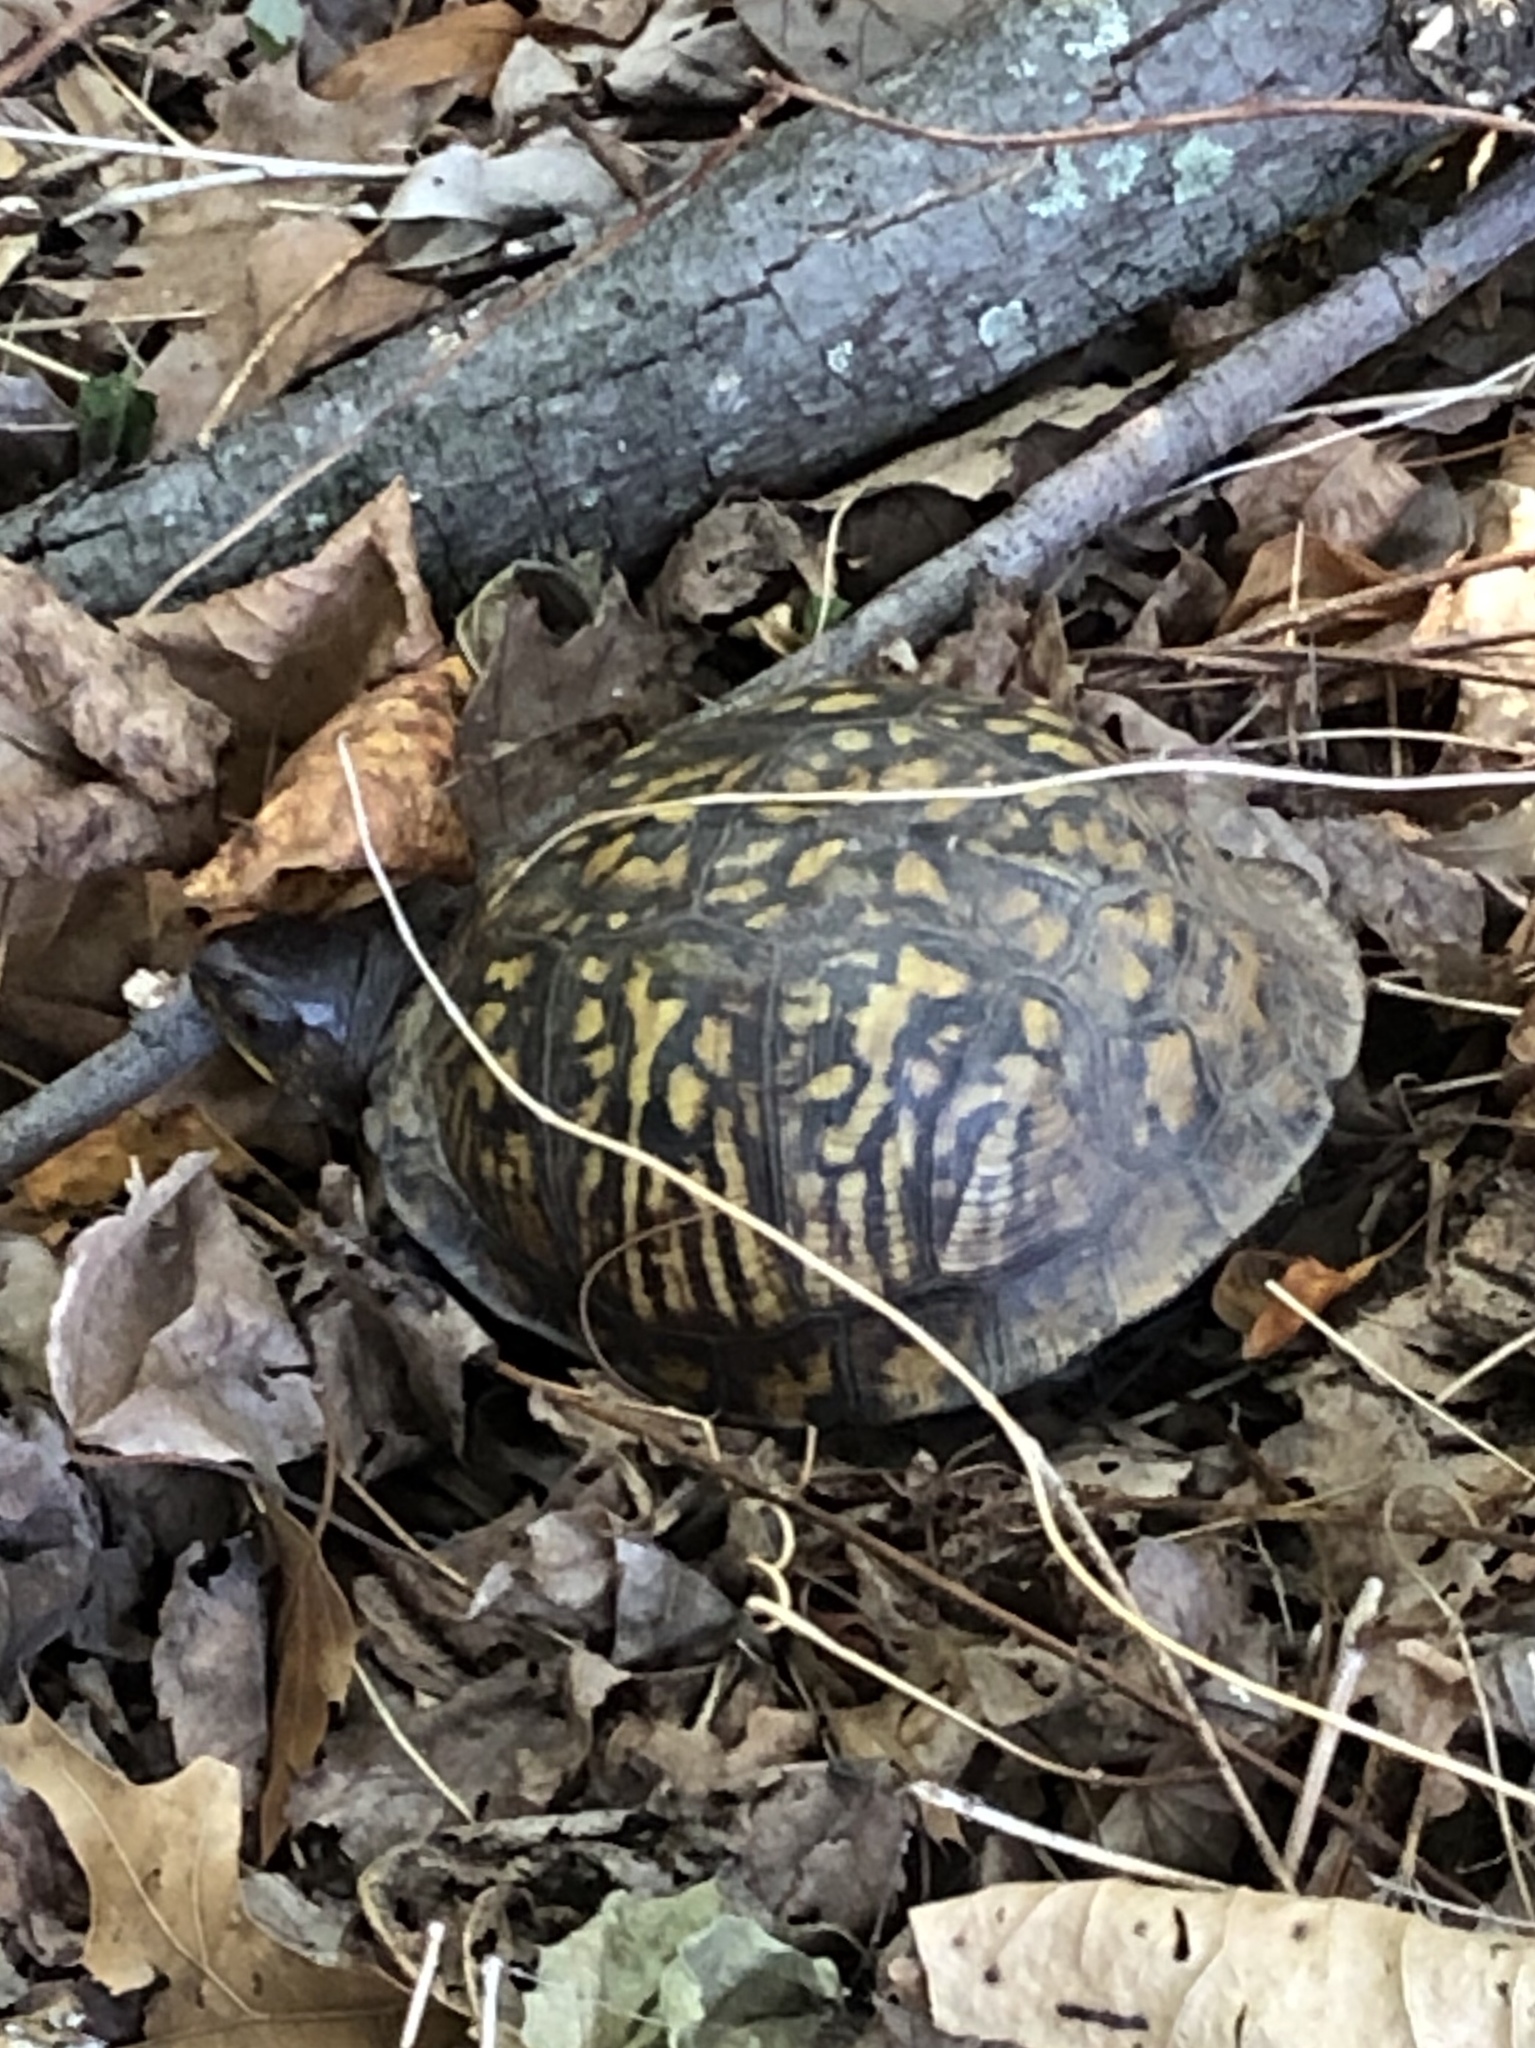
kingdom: Animalia
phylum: Chordata
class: Testudines
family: Emydidae
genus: Terrapene
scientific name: Terrapene carolina
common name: Common box turtle
